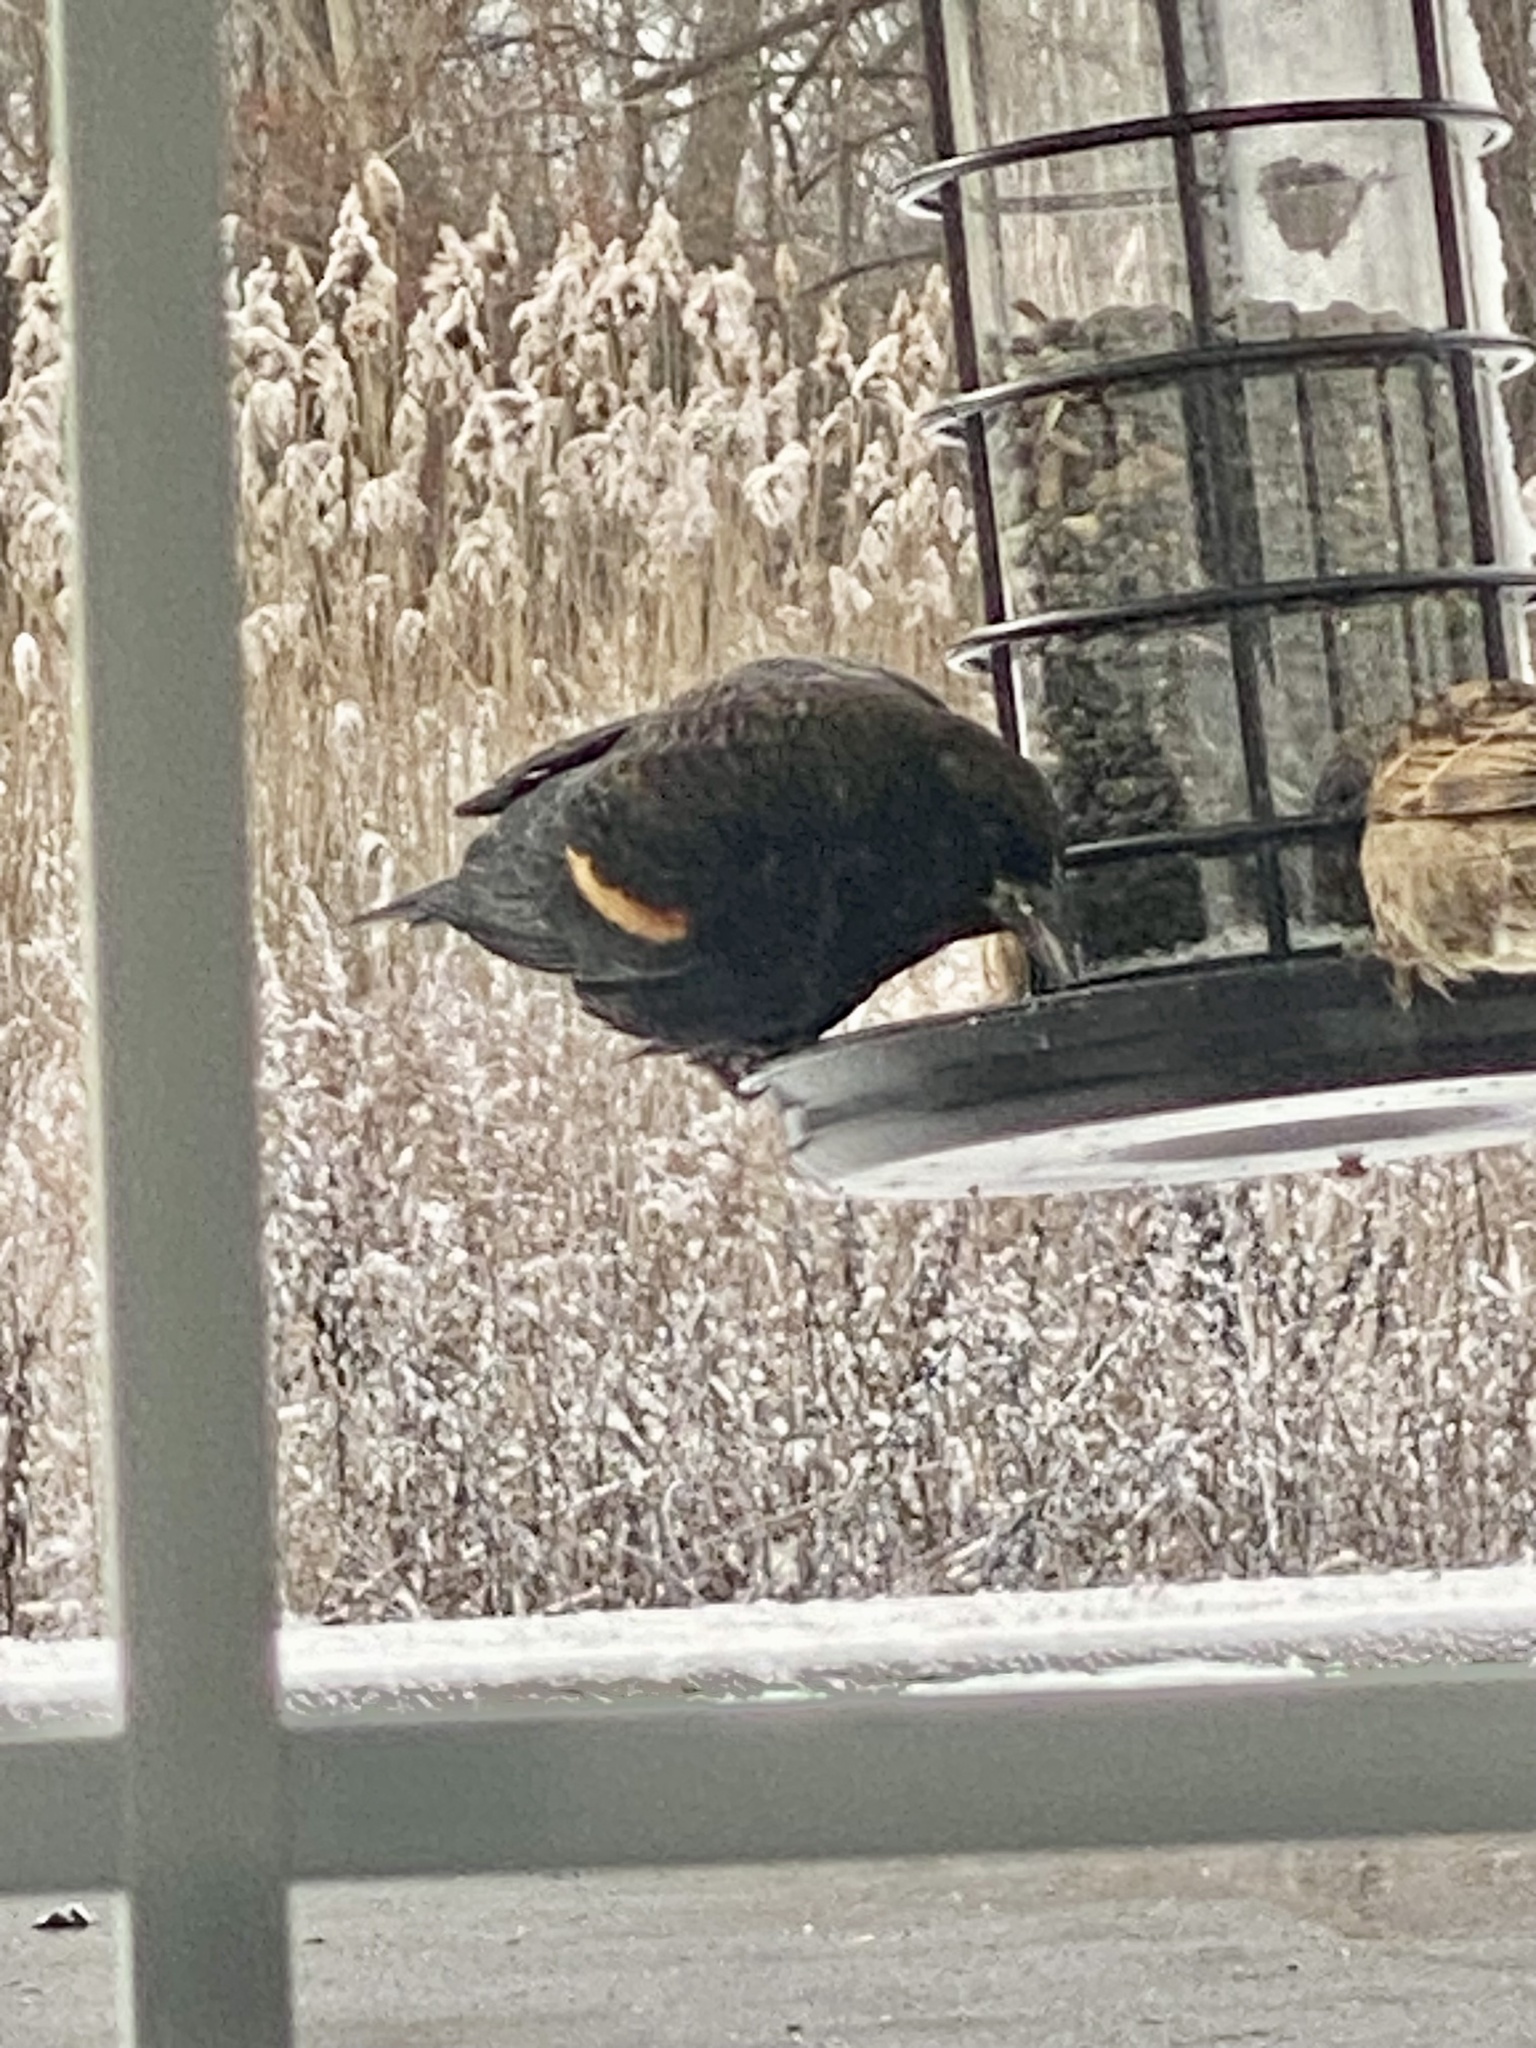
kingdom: Animalia
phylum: Chordata
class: Aves
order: Passeriformes
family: Icteridae
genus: Agelaius
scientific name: Agelaius phoeniceus
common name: Red-winged blackbird
